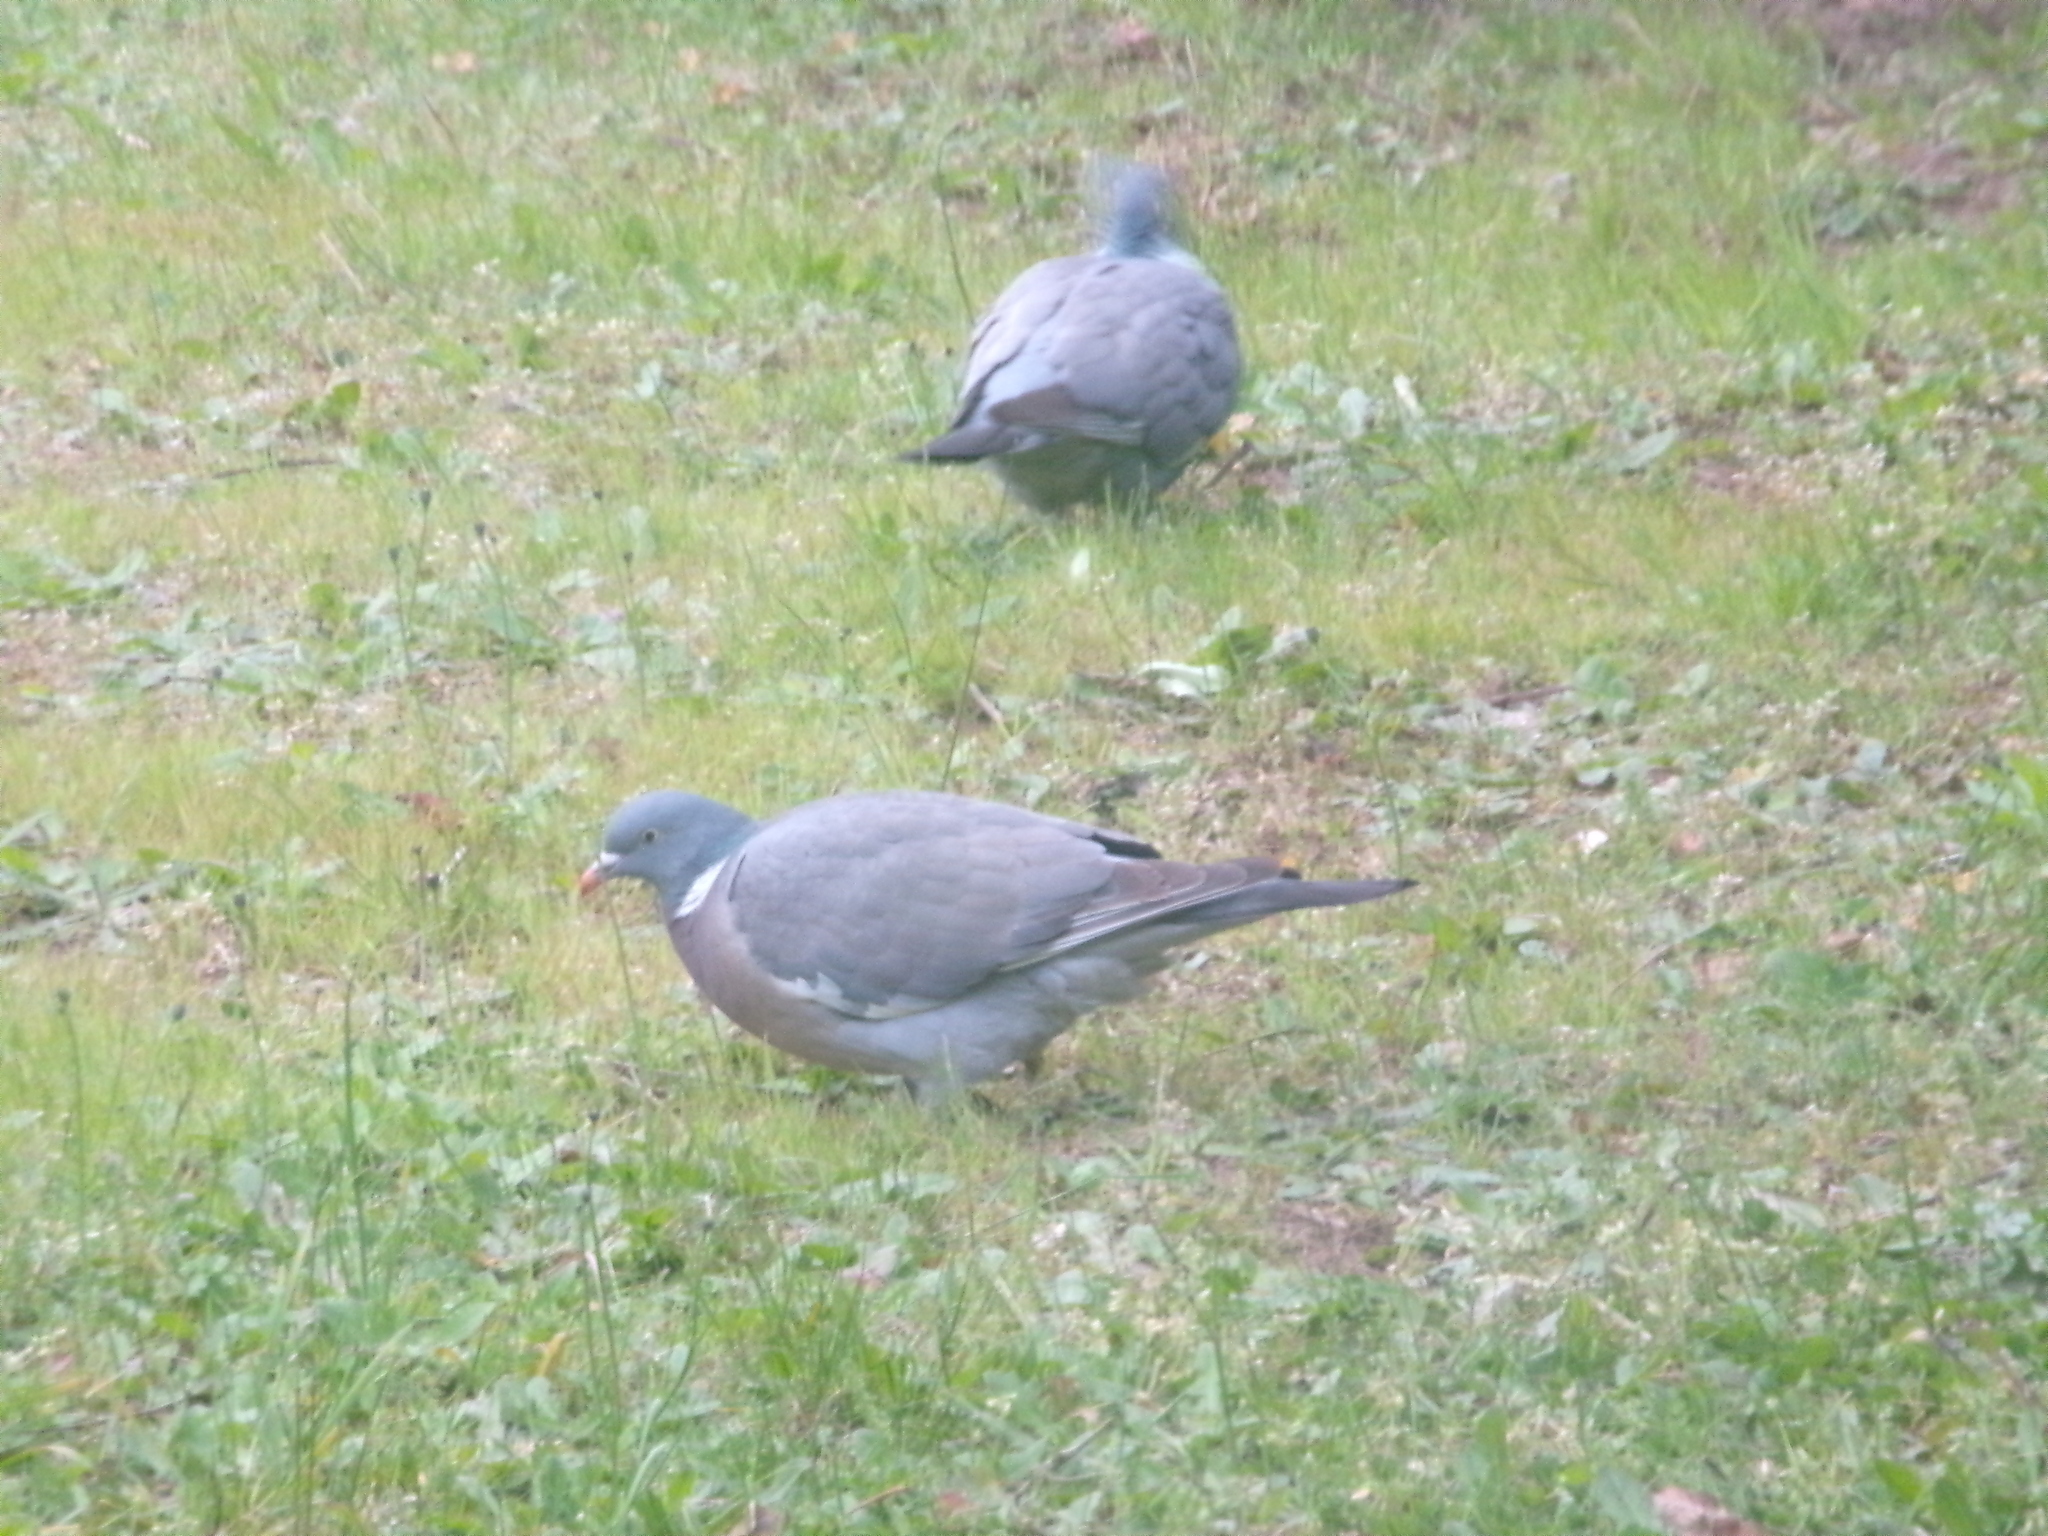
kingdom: Animalia
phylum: Chordata
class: Aves
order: Columbiformes
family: Columbidae
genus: Columba
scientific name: Columba palumbus
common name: Common wood pigeon
